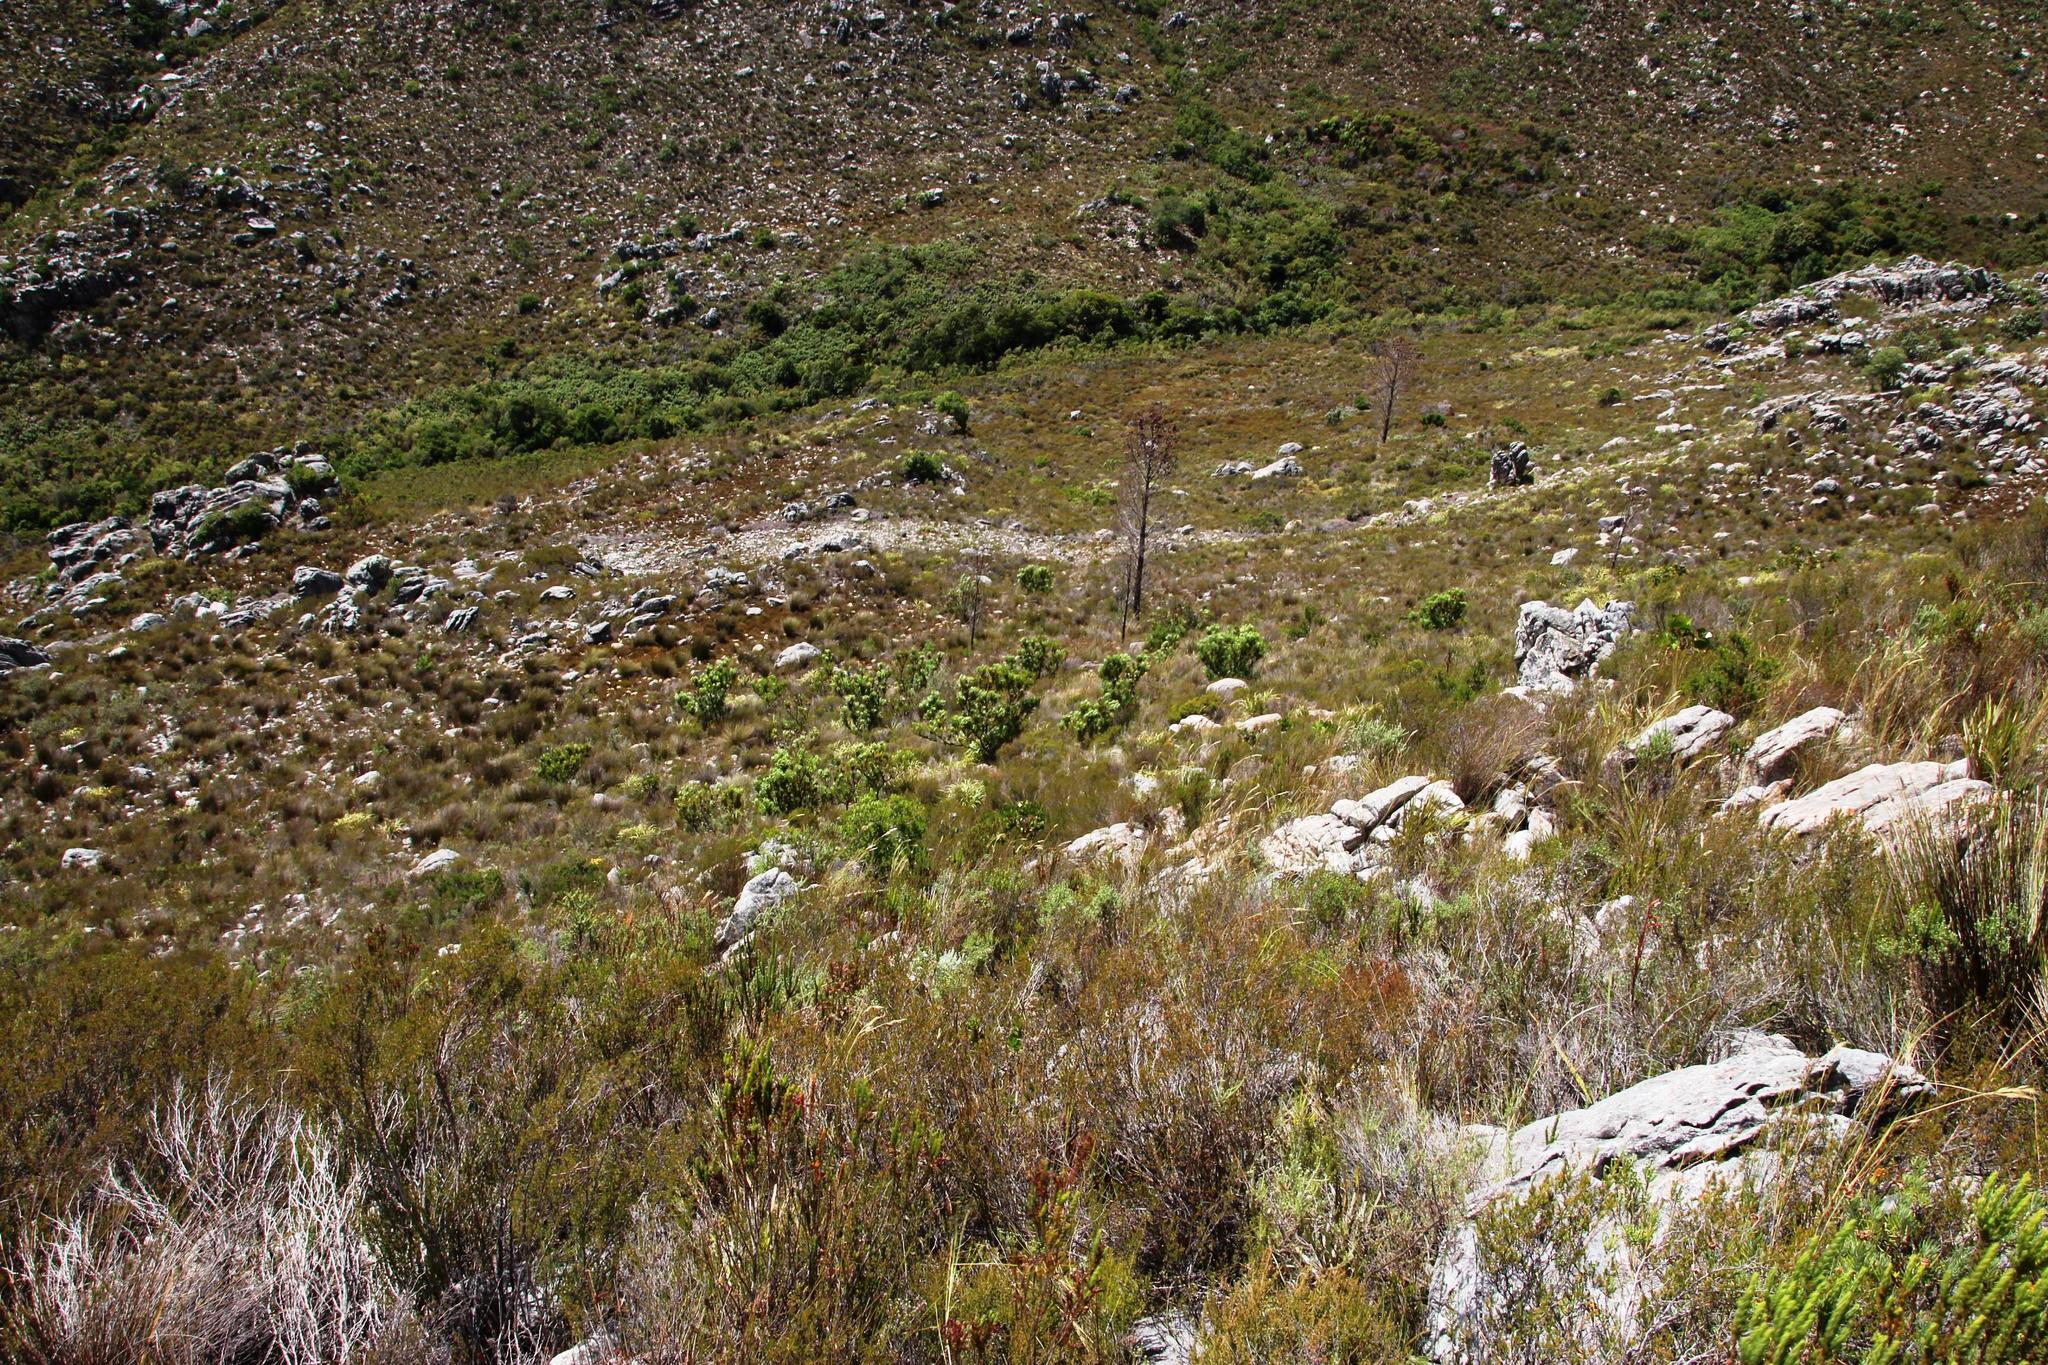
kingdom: Plantae
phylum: Tracheophyta
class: Magnoliopsida
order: Proteales
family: Proteaceae
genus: Protea
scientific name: Protea repens
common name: Sugarbush
